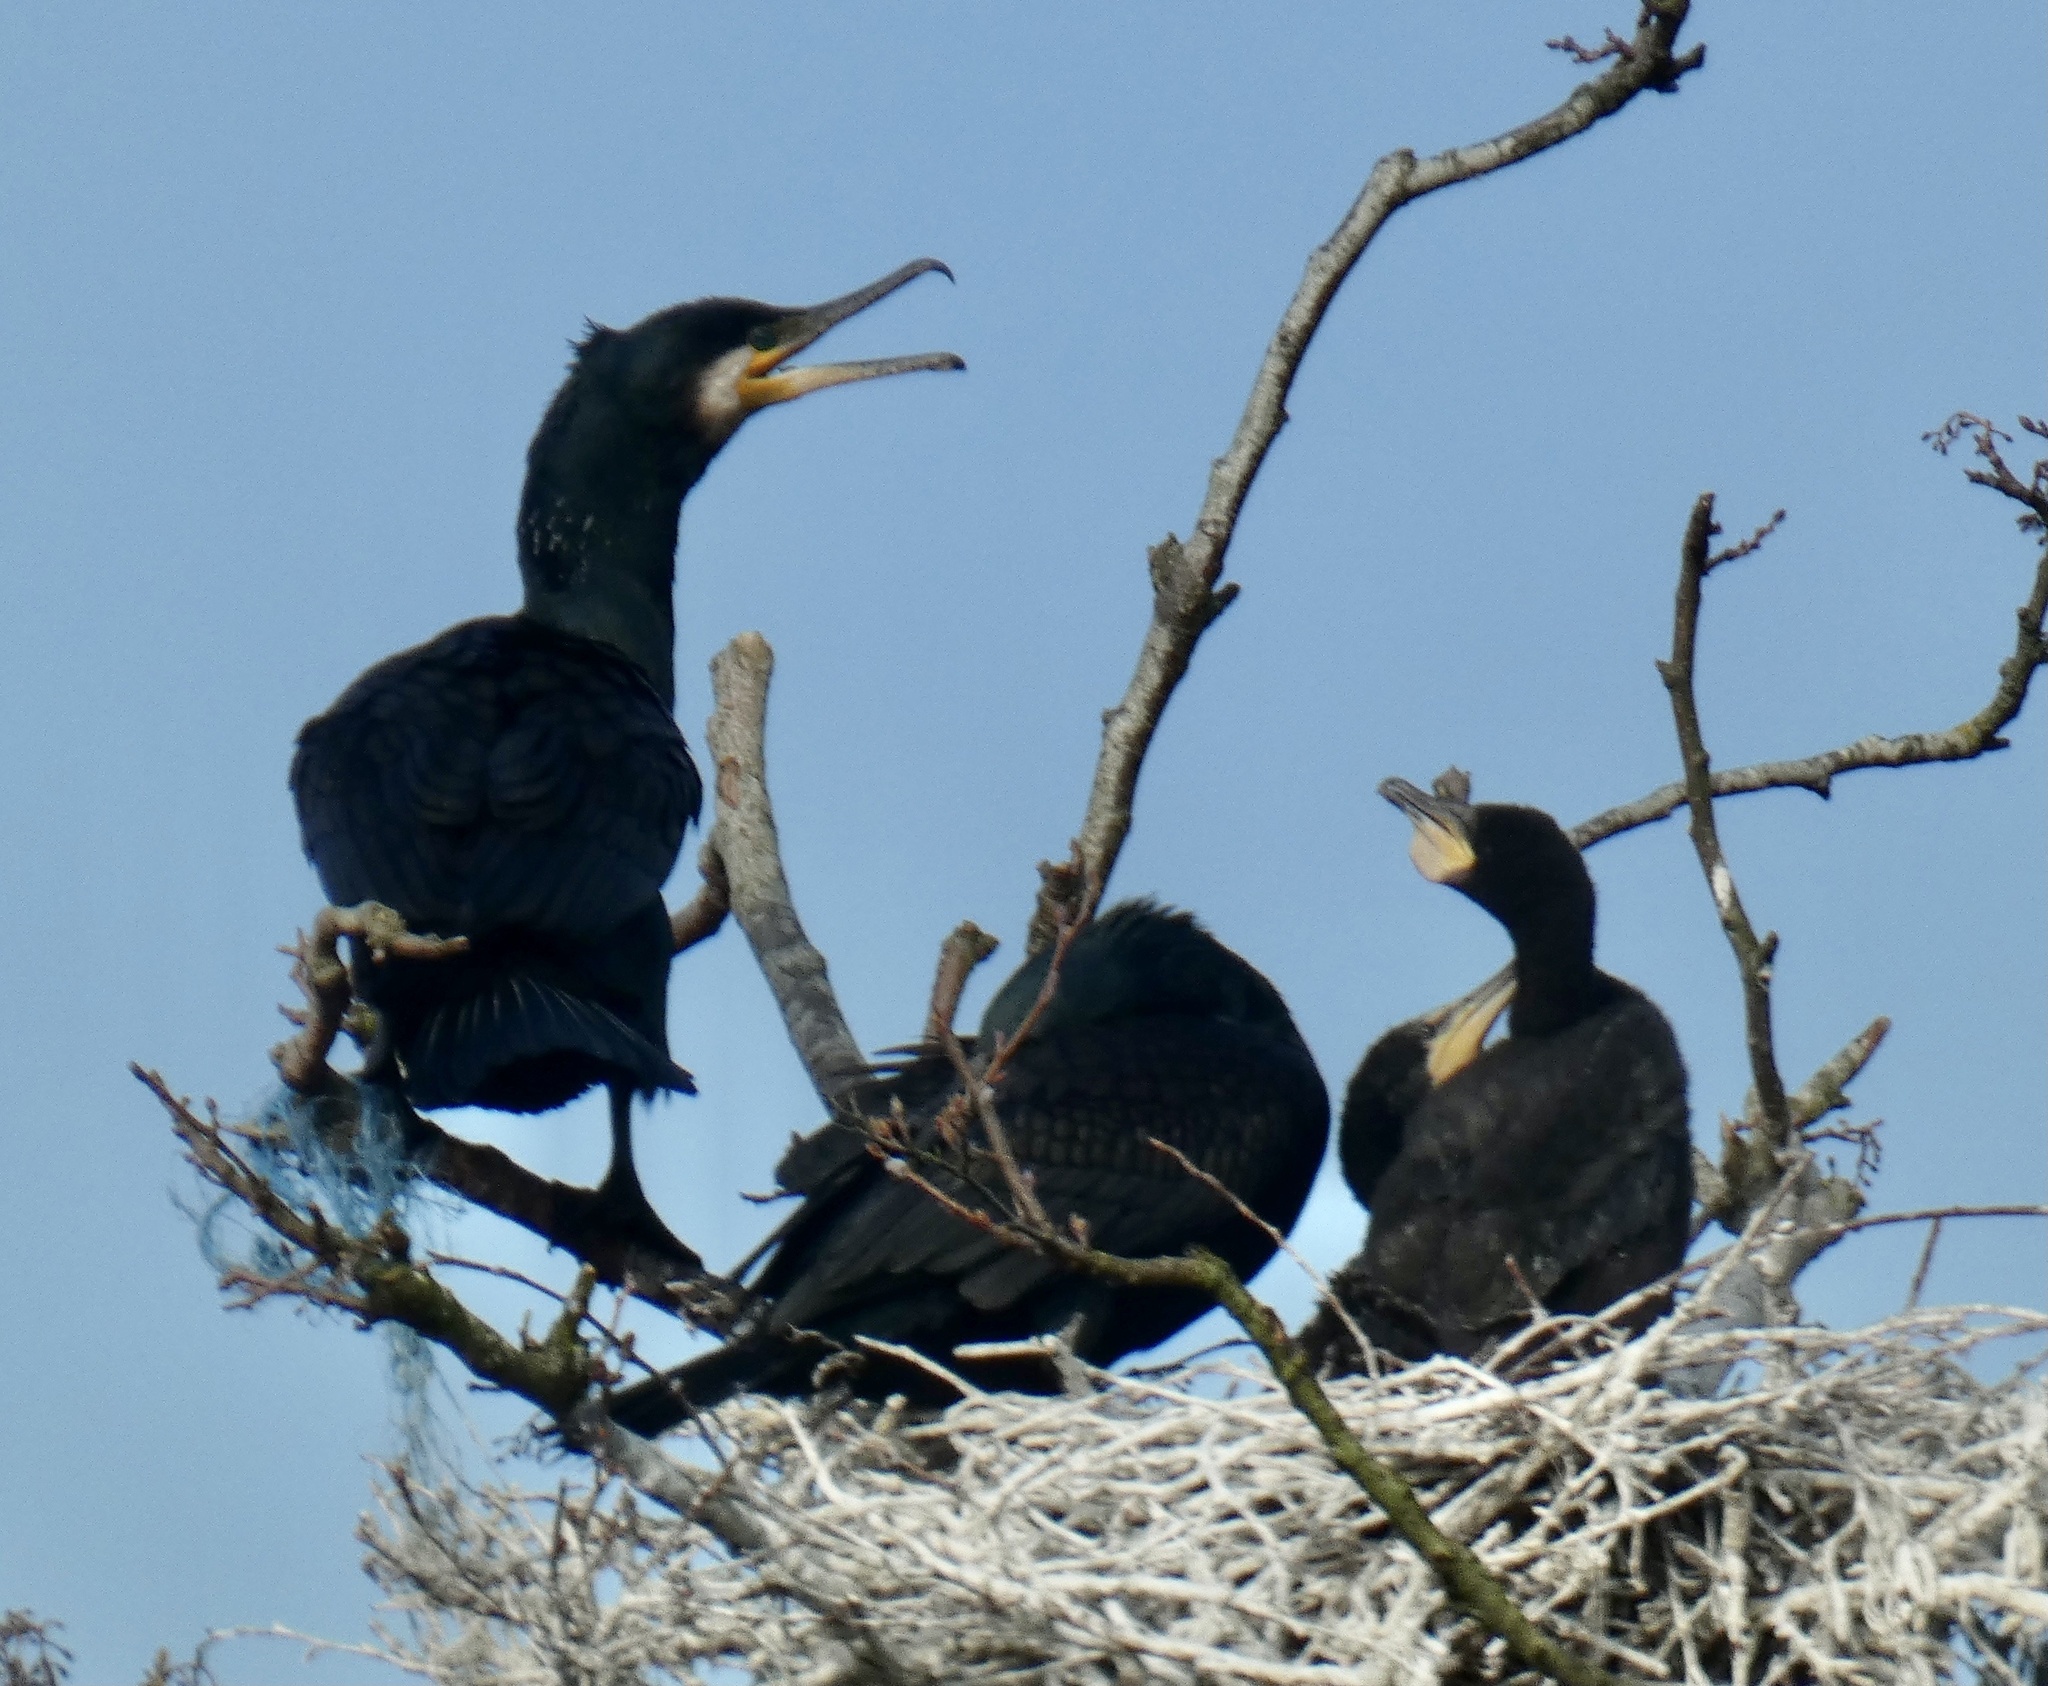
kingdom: Animalia
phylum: Chordata
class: Aves
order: Suliformes
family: Phalacrocoracidae
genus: Phalacrocorax
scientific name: Phalacrocorax carbo
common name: Great cormorant
